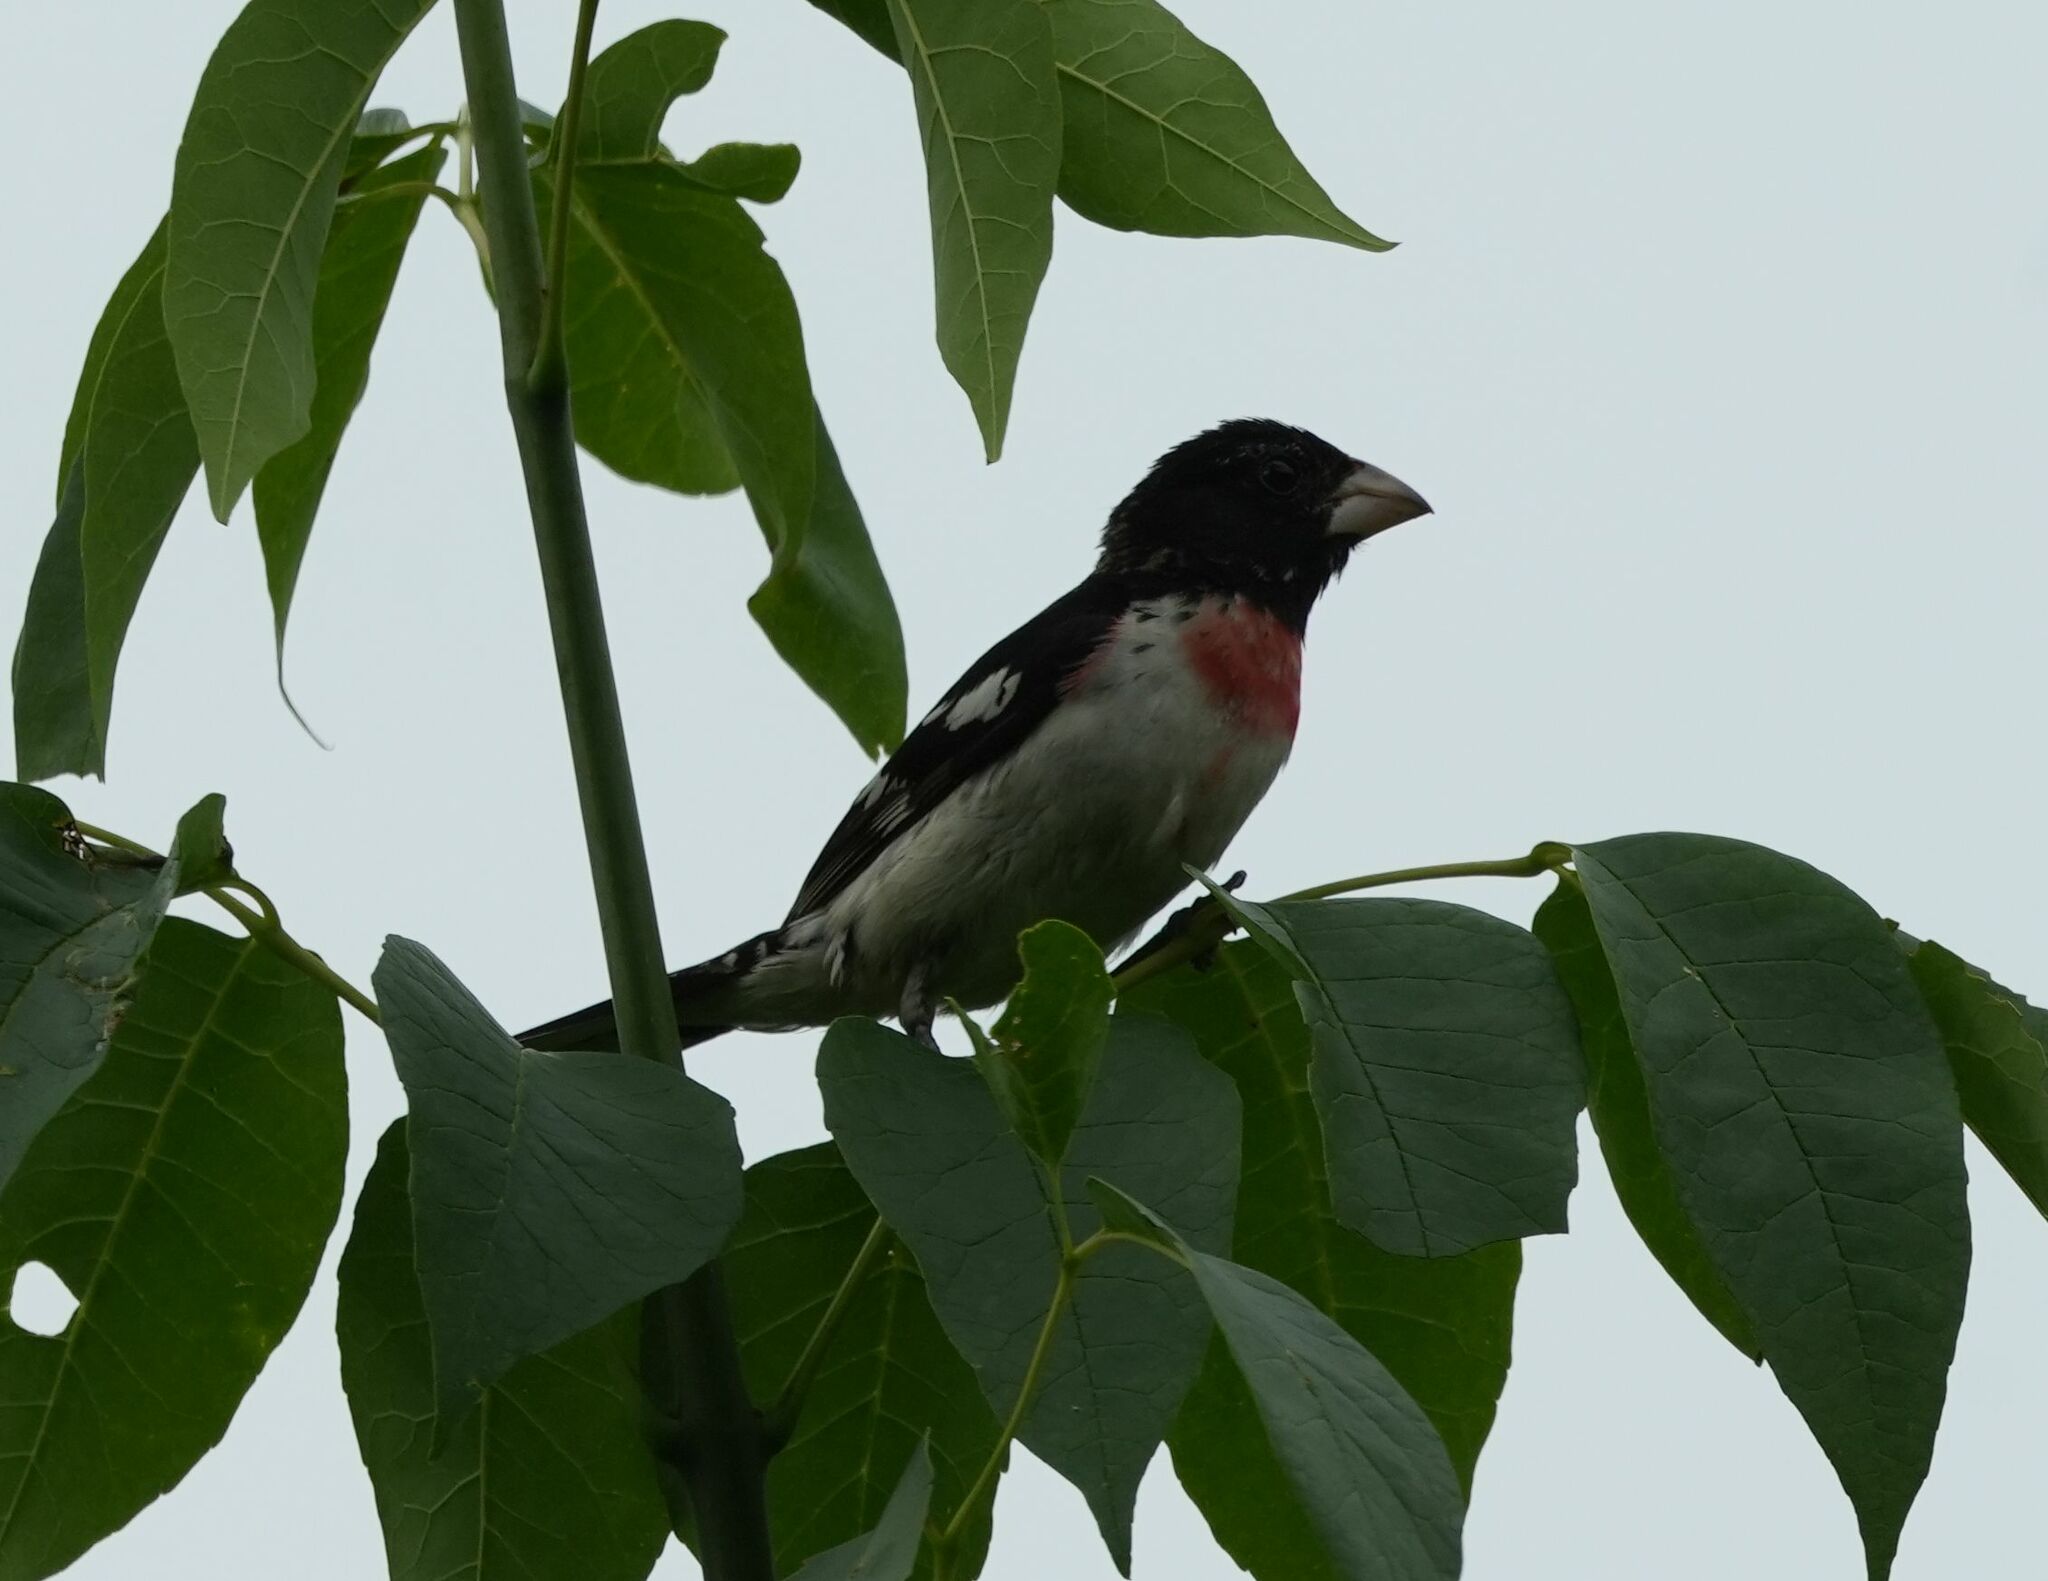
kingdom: Animalia
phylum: Chordata
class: Aves
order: Passeriformes
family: Cardinalidae
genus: Pheucticus
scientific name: Pheucticus ludovicianus
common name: Rose-breasted grosbeak
